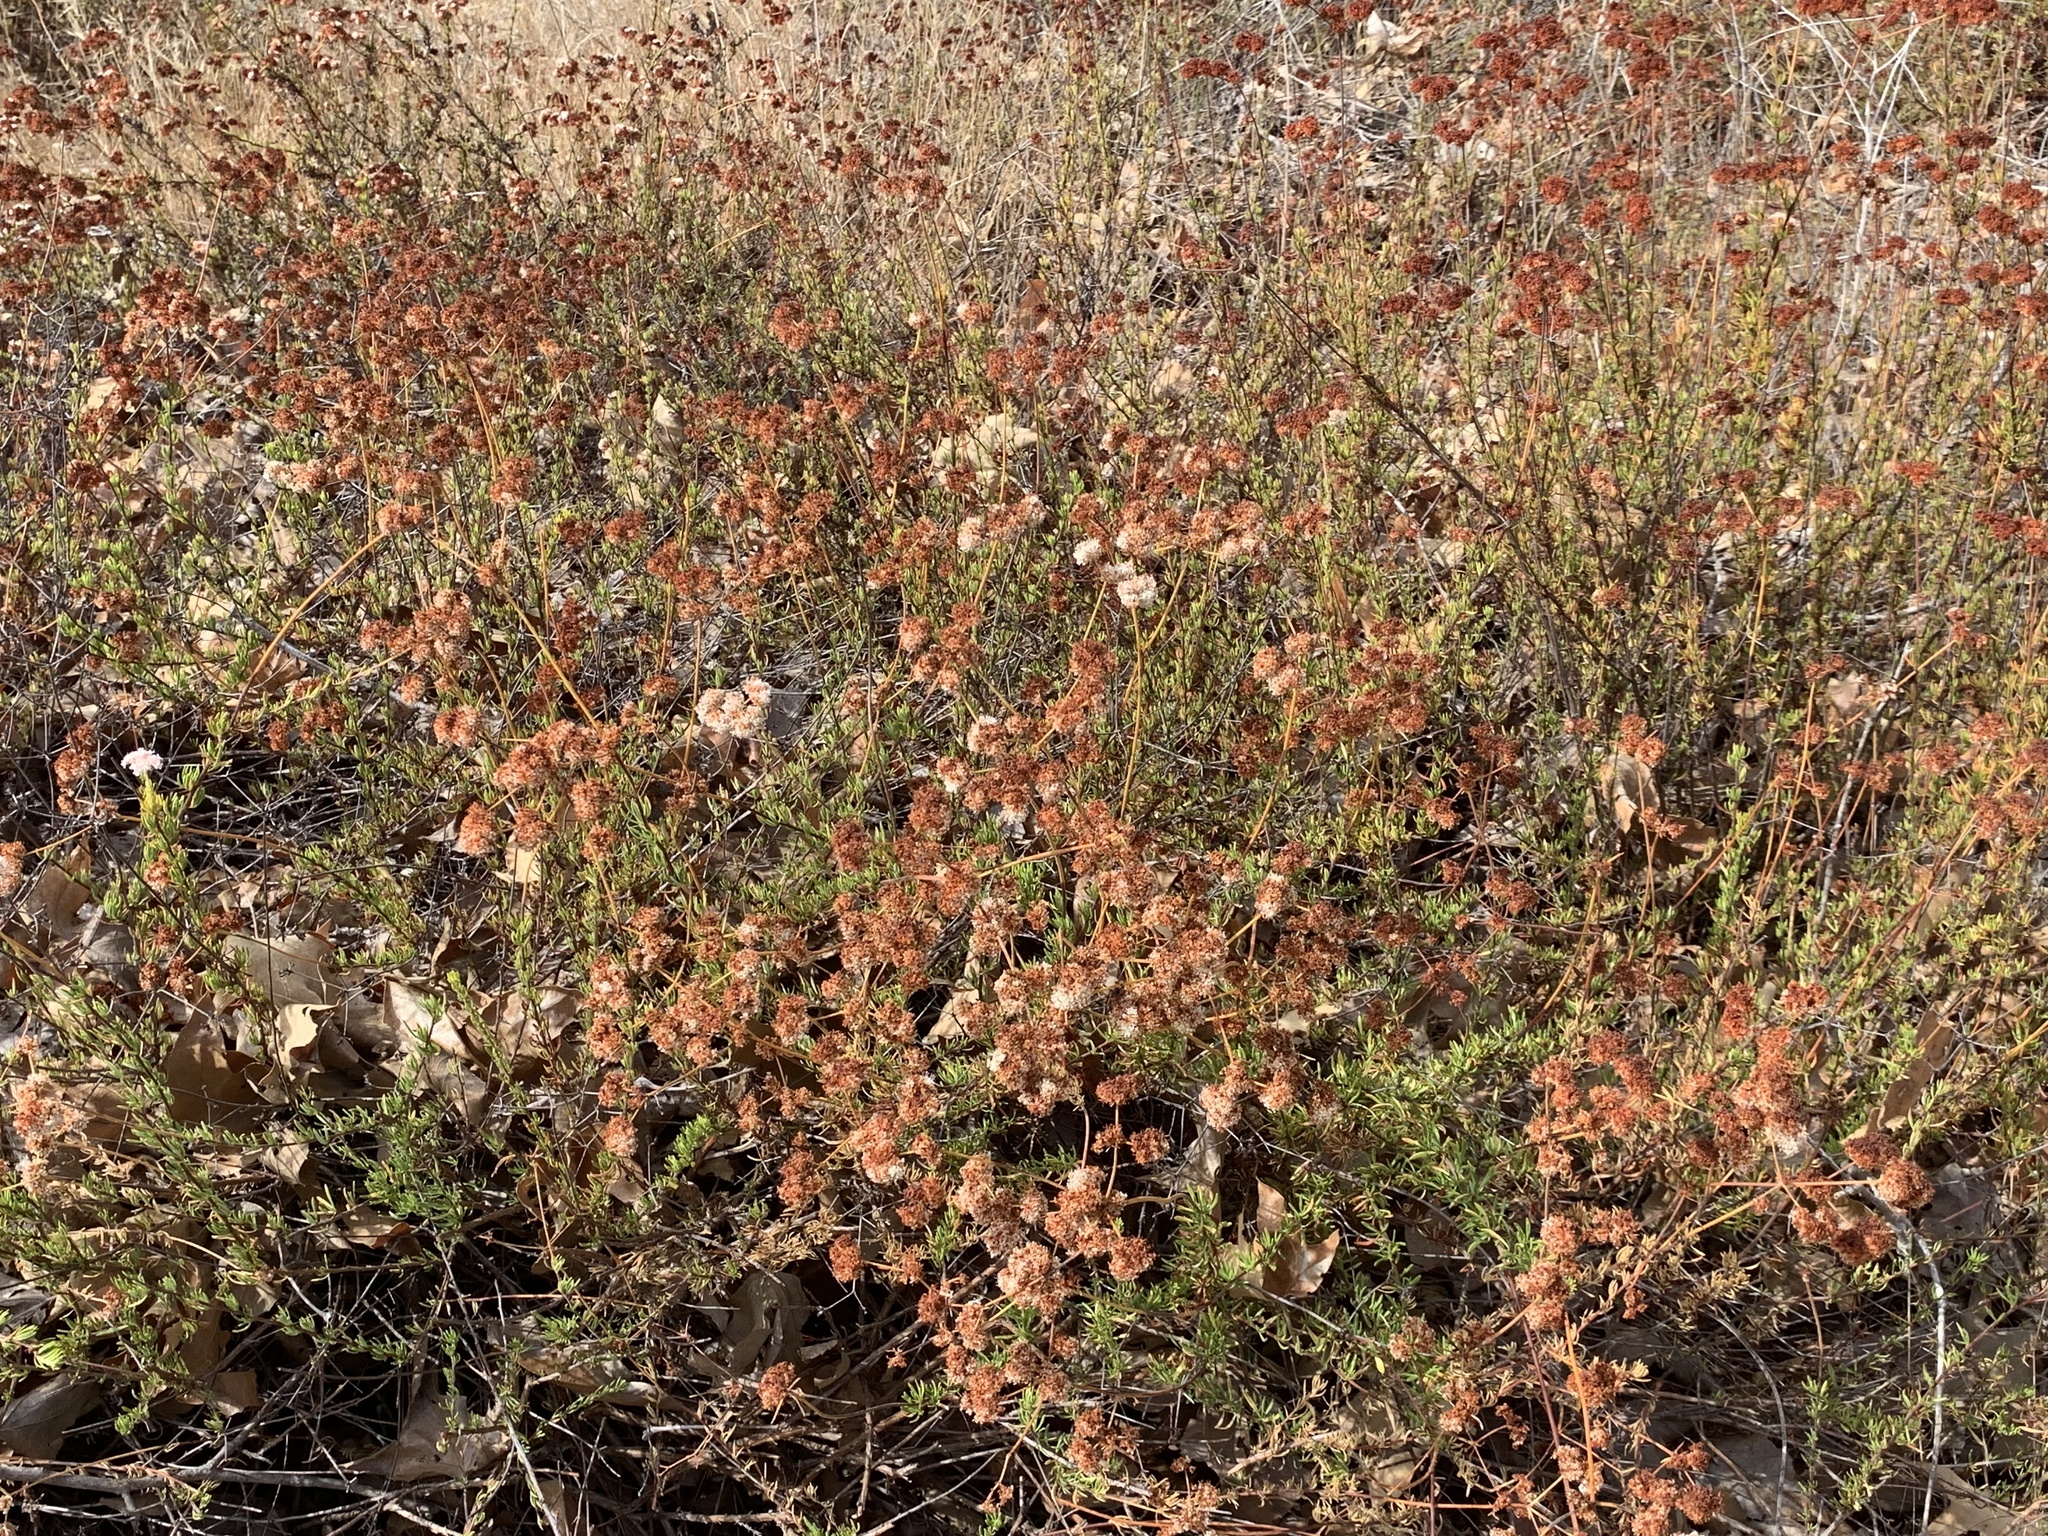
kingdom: Plantae
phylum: Tracheophyta
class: Magnoliopsida
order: Caryophyllales
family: Polygonaceae
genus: Eriogonum
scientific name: Eriogonum fasciculatum
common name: California wild buckwheat
